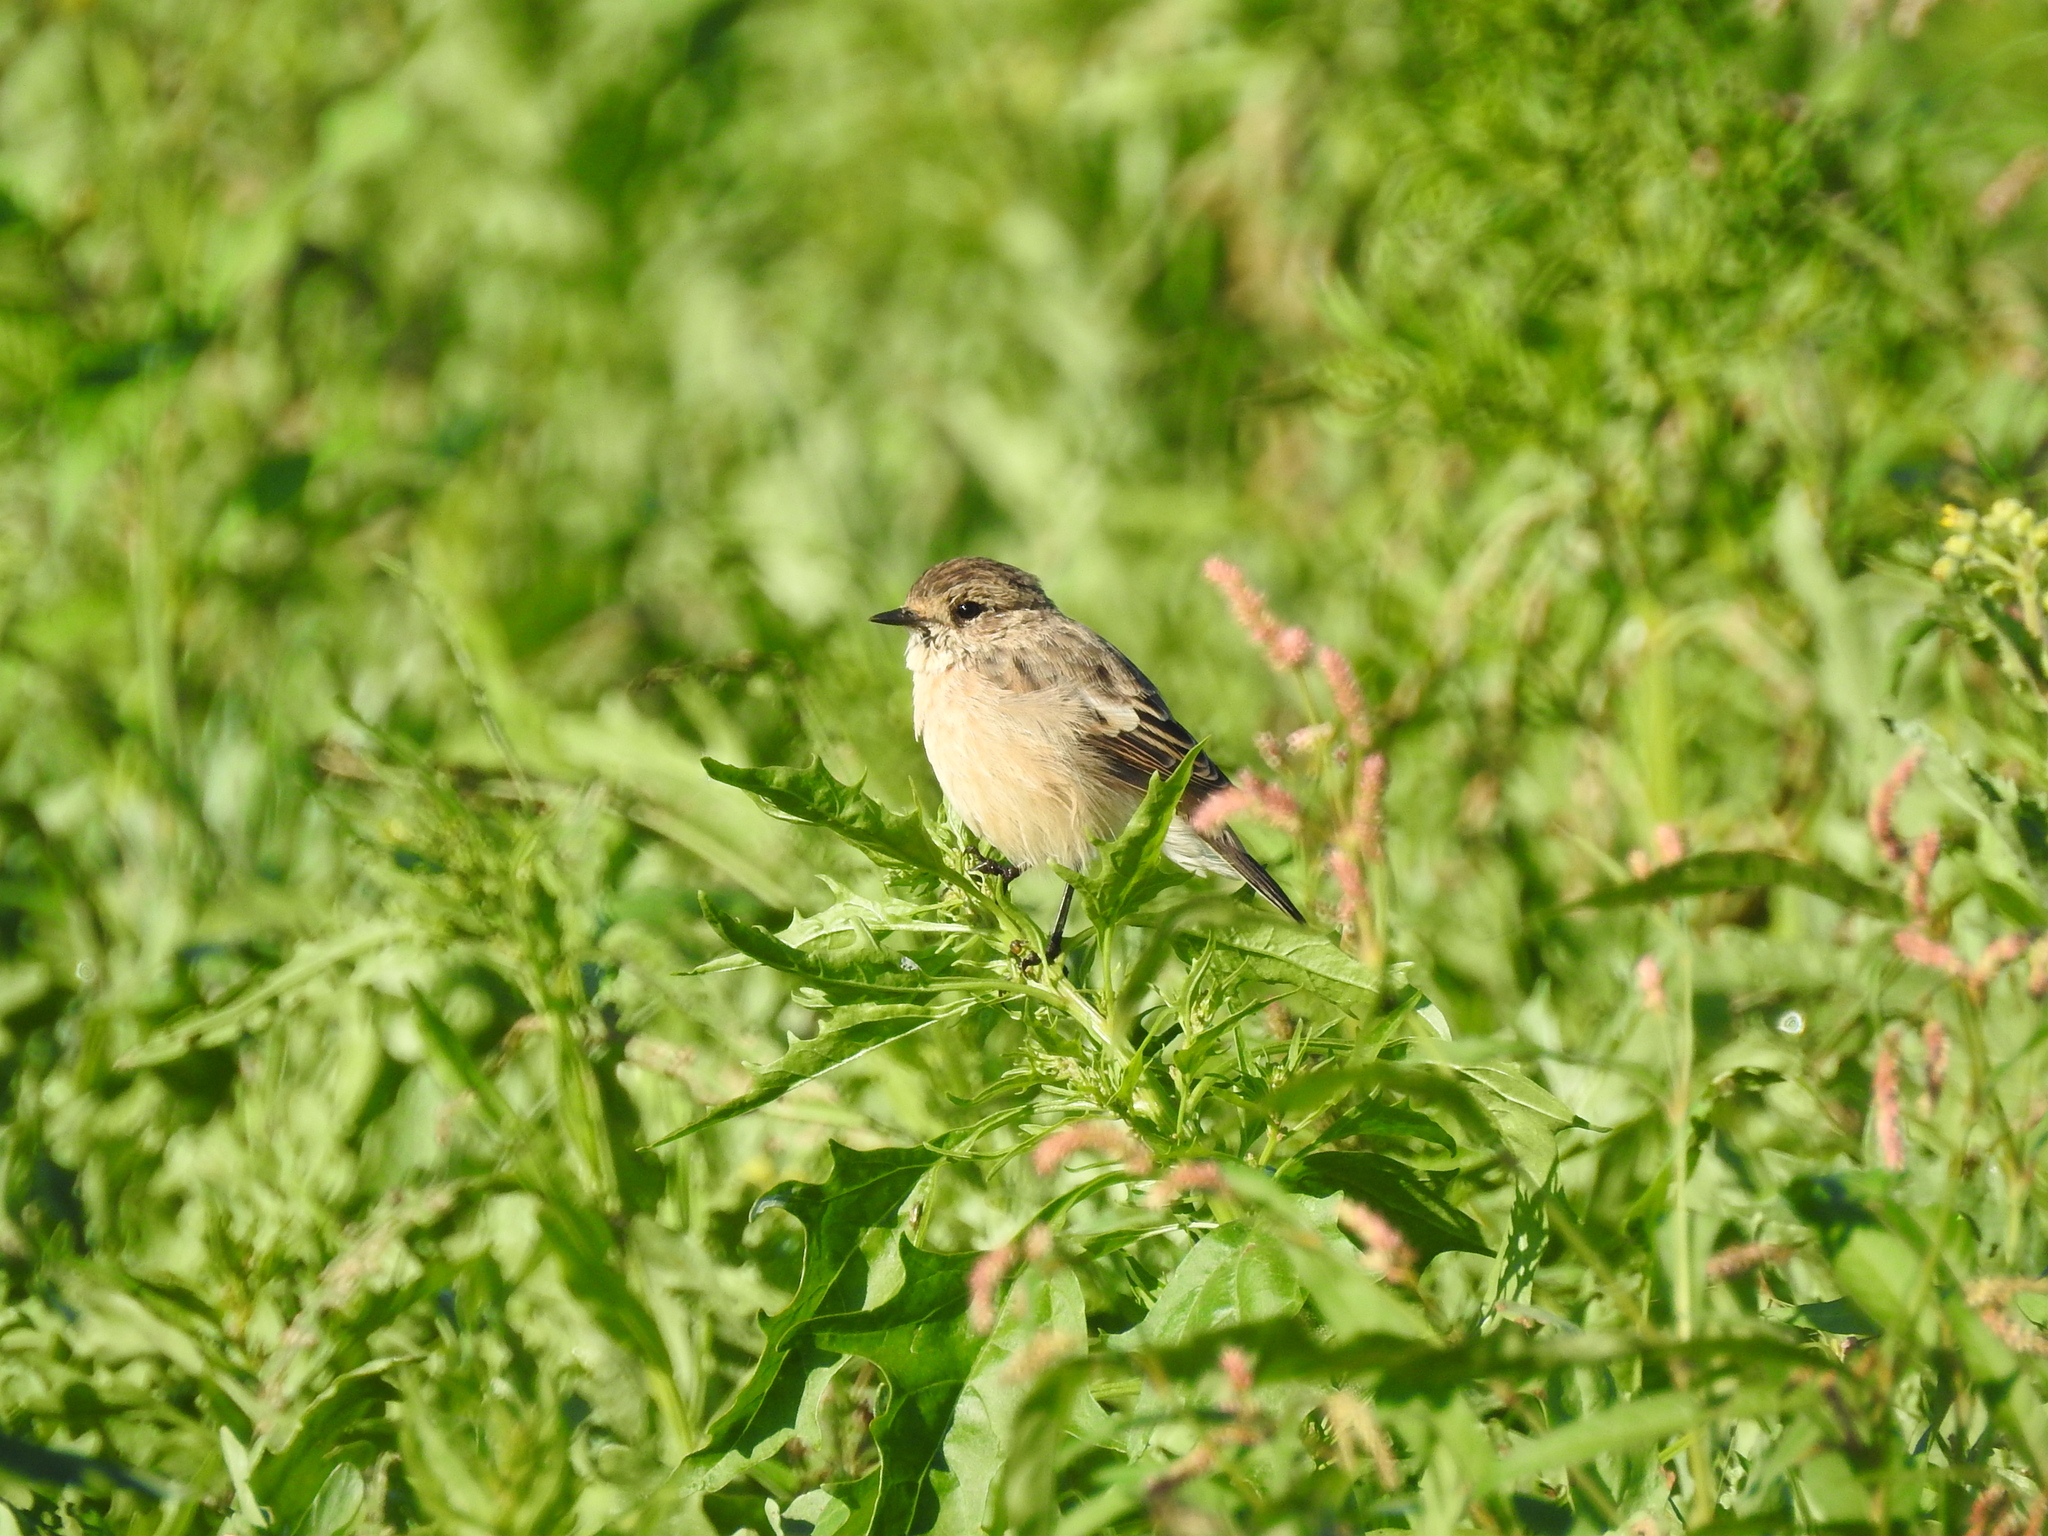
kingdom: Animalia
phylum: Chordata
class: Aves
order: Passeriformes
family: Muscicapidae
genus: Saxicola
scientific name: Saxicola maurus
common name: Siberian stonechat
